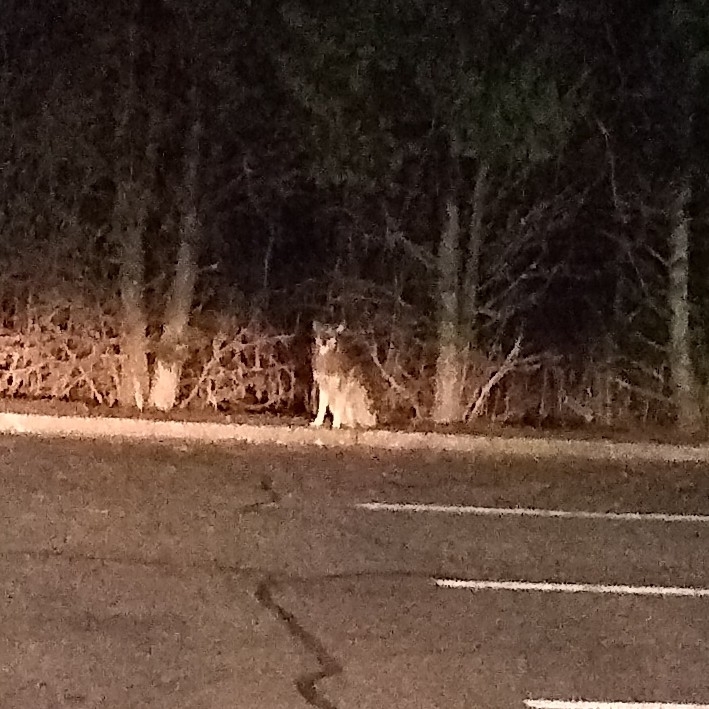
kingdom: Animalia
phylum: Chordata
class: Mammalia
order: Carnivora
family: Canidae
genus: Canis
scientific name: Canis latrans
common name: Coyote
